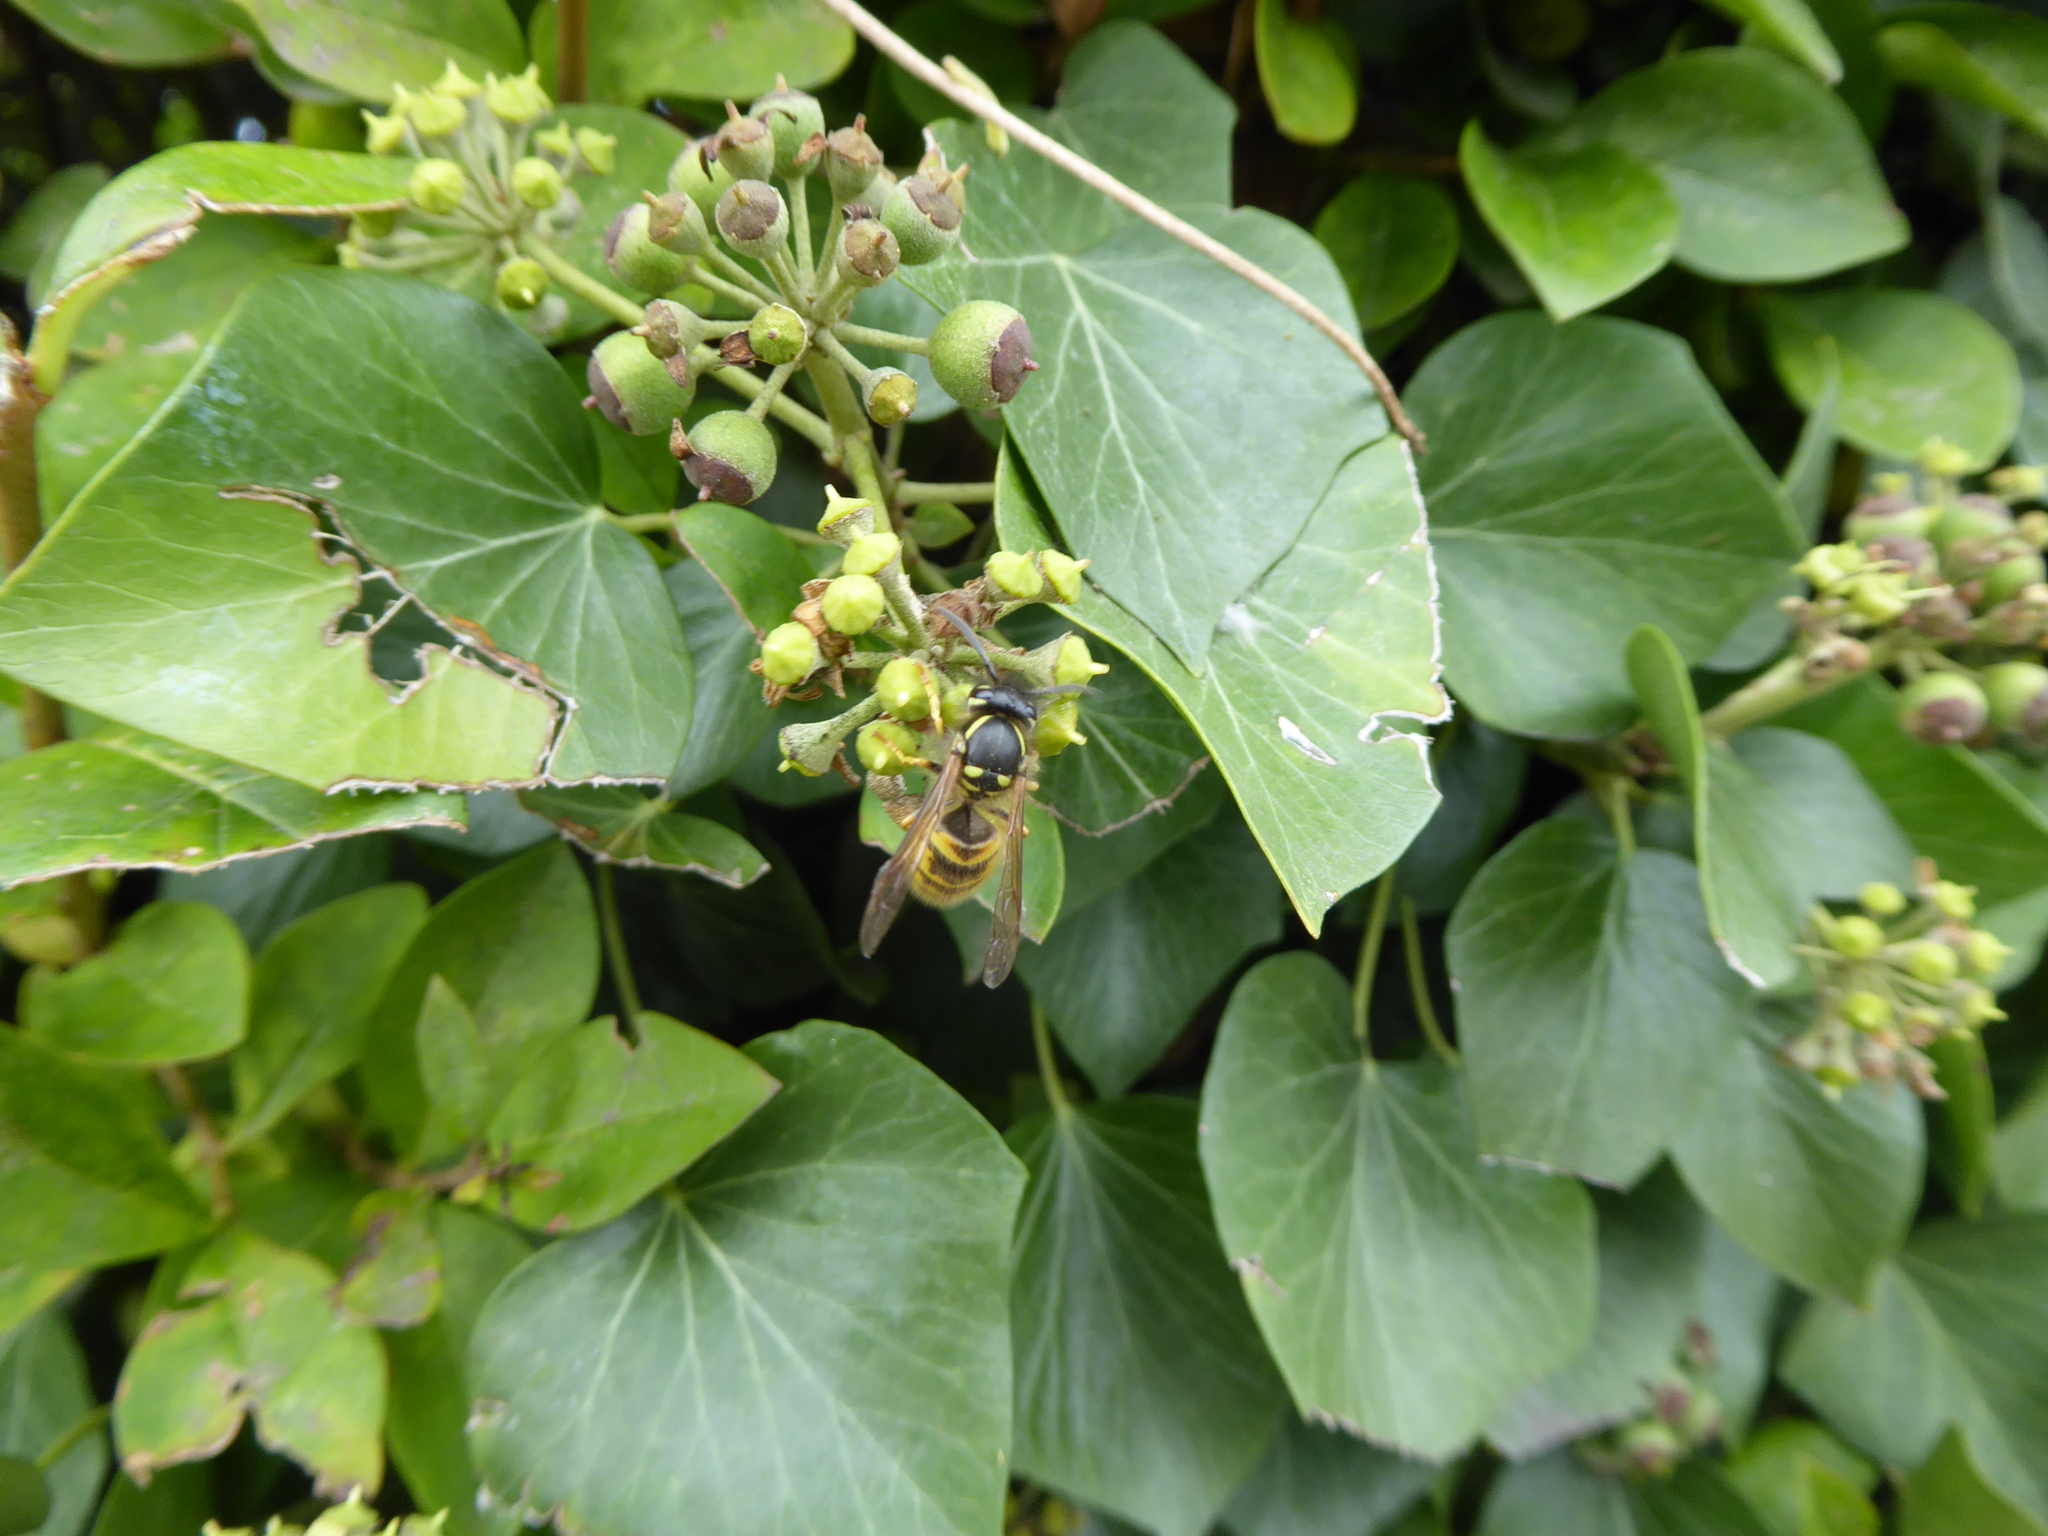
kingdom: Animalia
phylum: Arthropoda
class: Insecta
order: Hymenoptera
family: Vespidae
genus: Vespula
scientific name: Vespula vulgaris
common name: Common wasp
